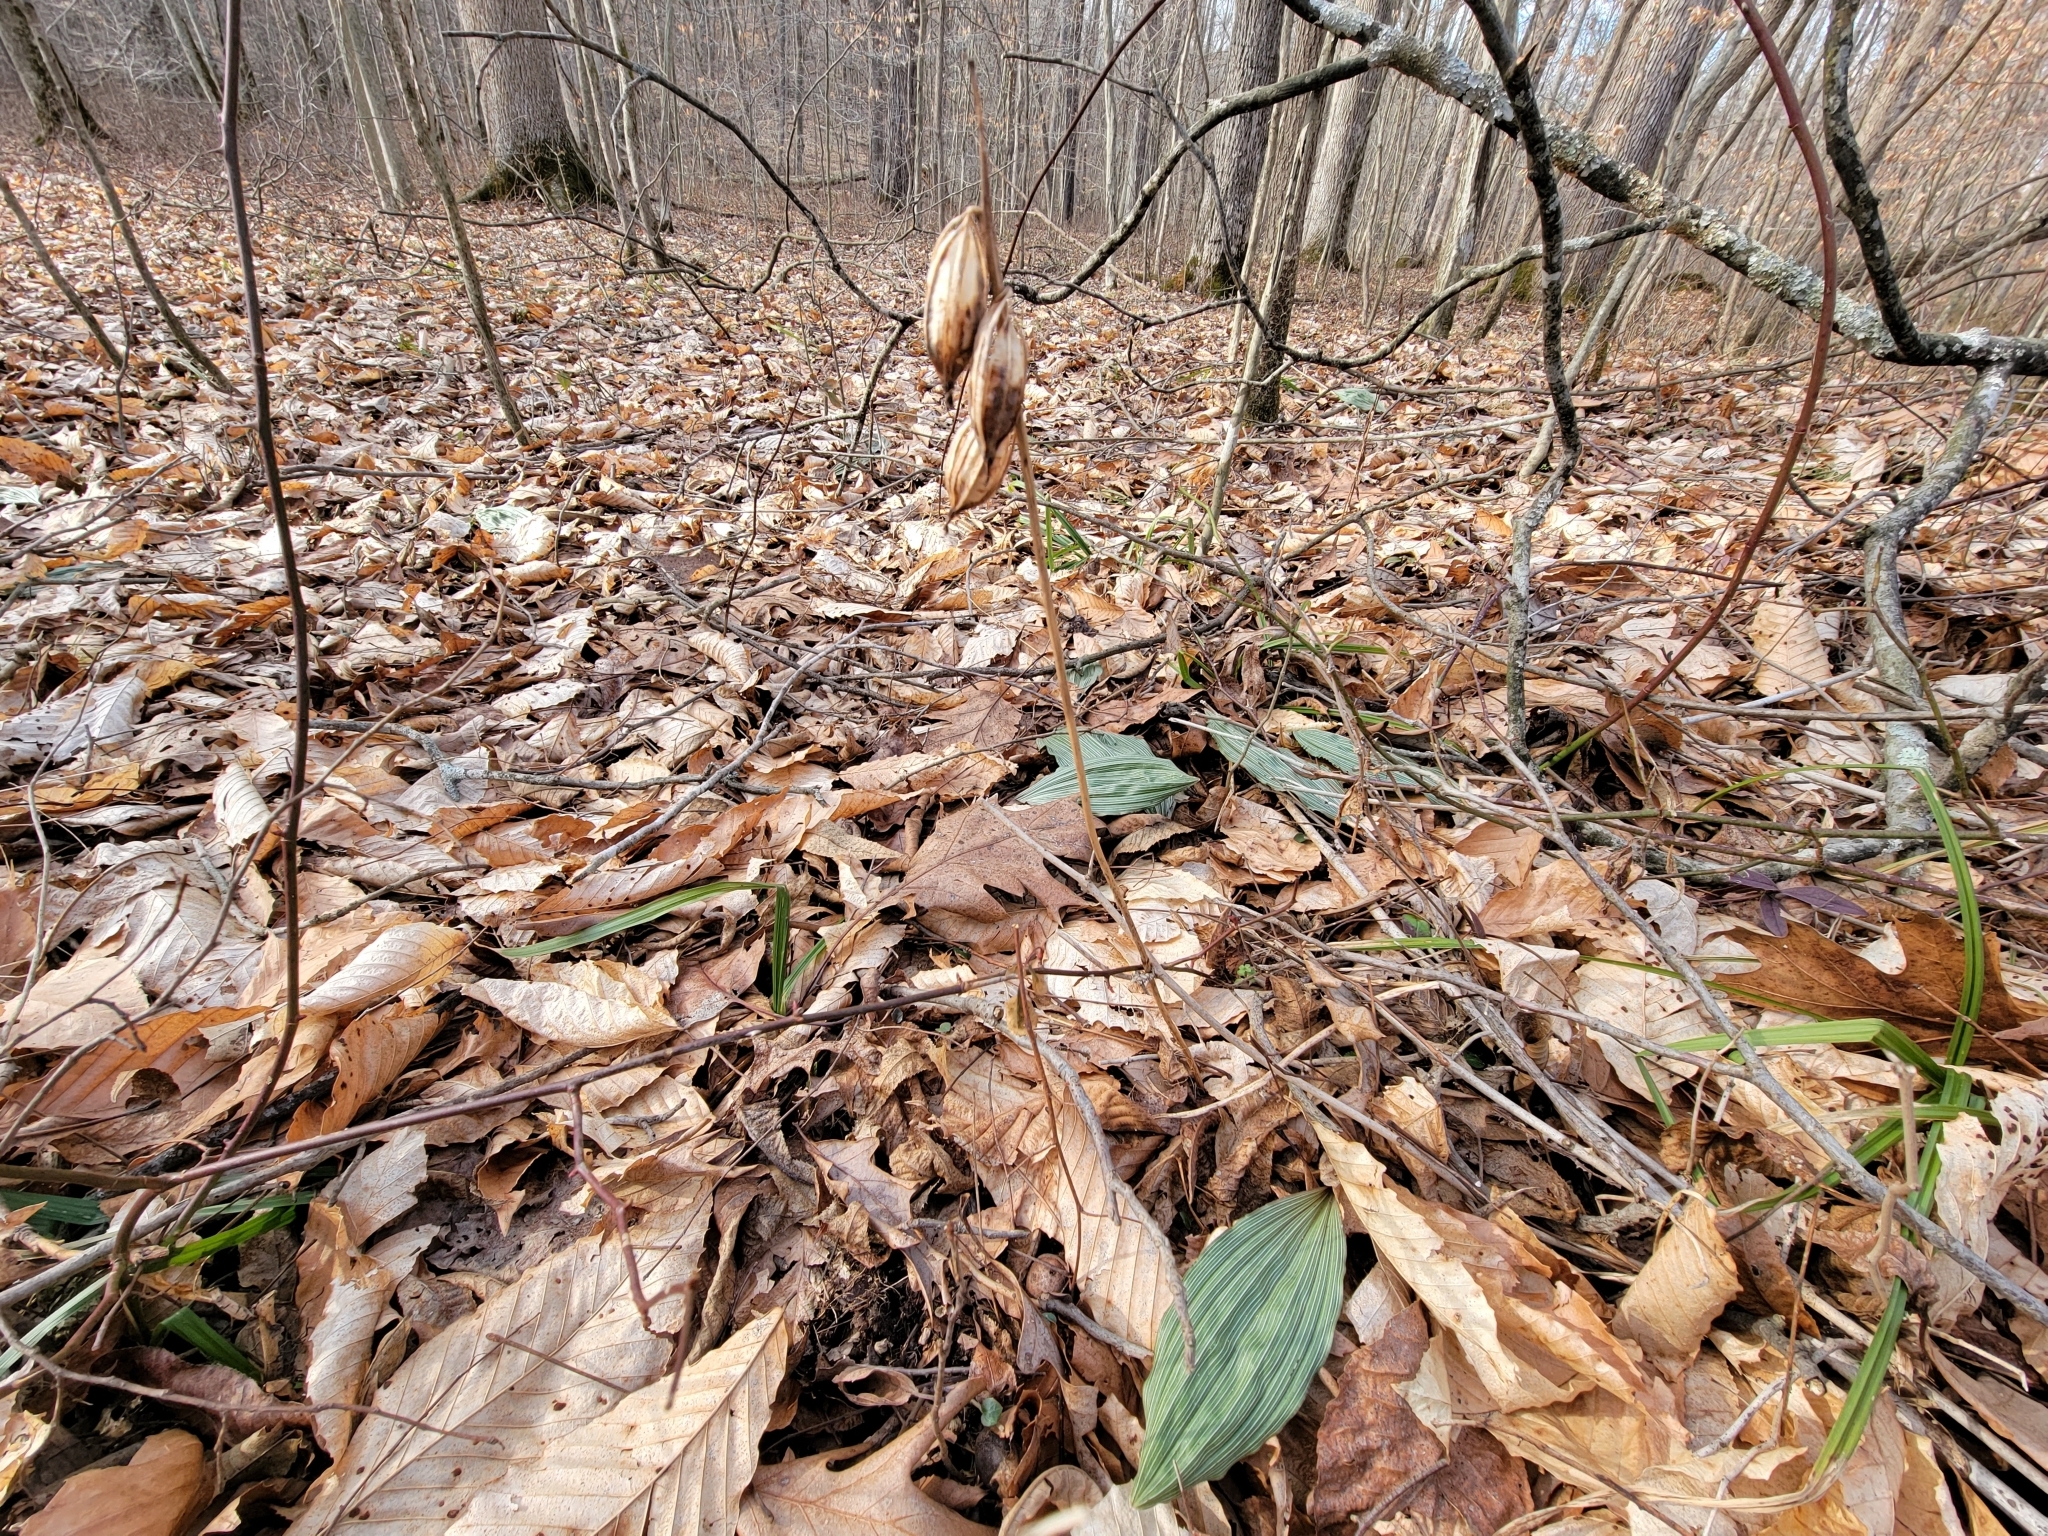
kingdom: Plantae
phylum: Tracheophyta
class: Liliopsida
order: Asparagales
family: Orchidaceae
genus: Aplectrum
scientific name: Aplectrum hyemale
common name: Adam-and-eve
